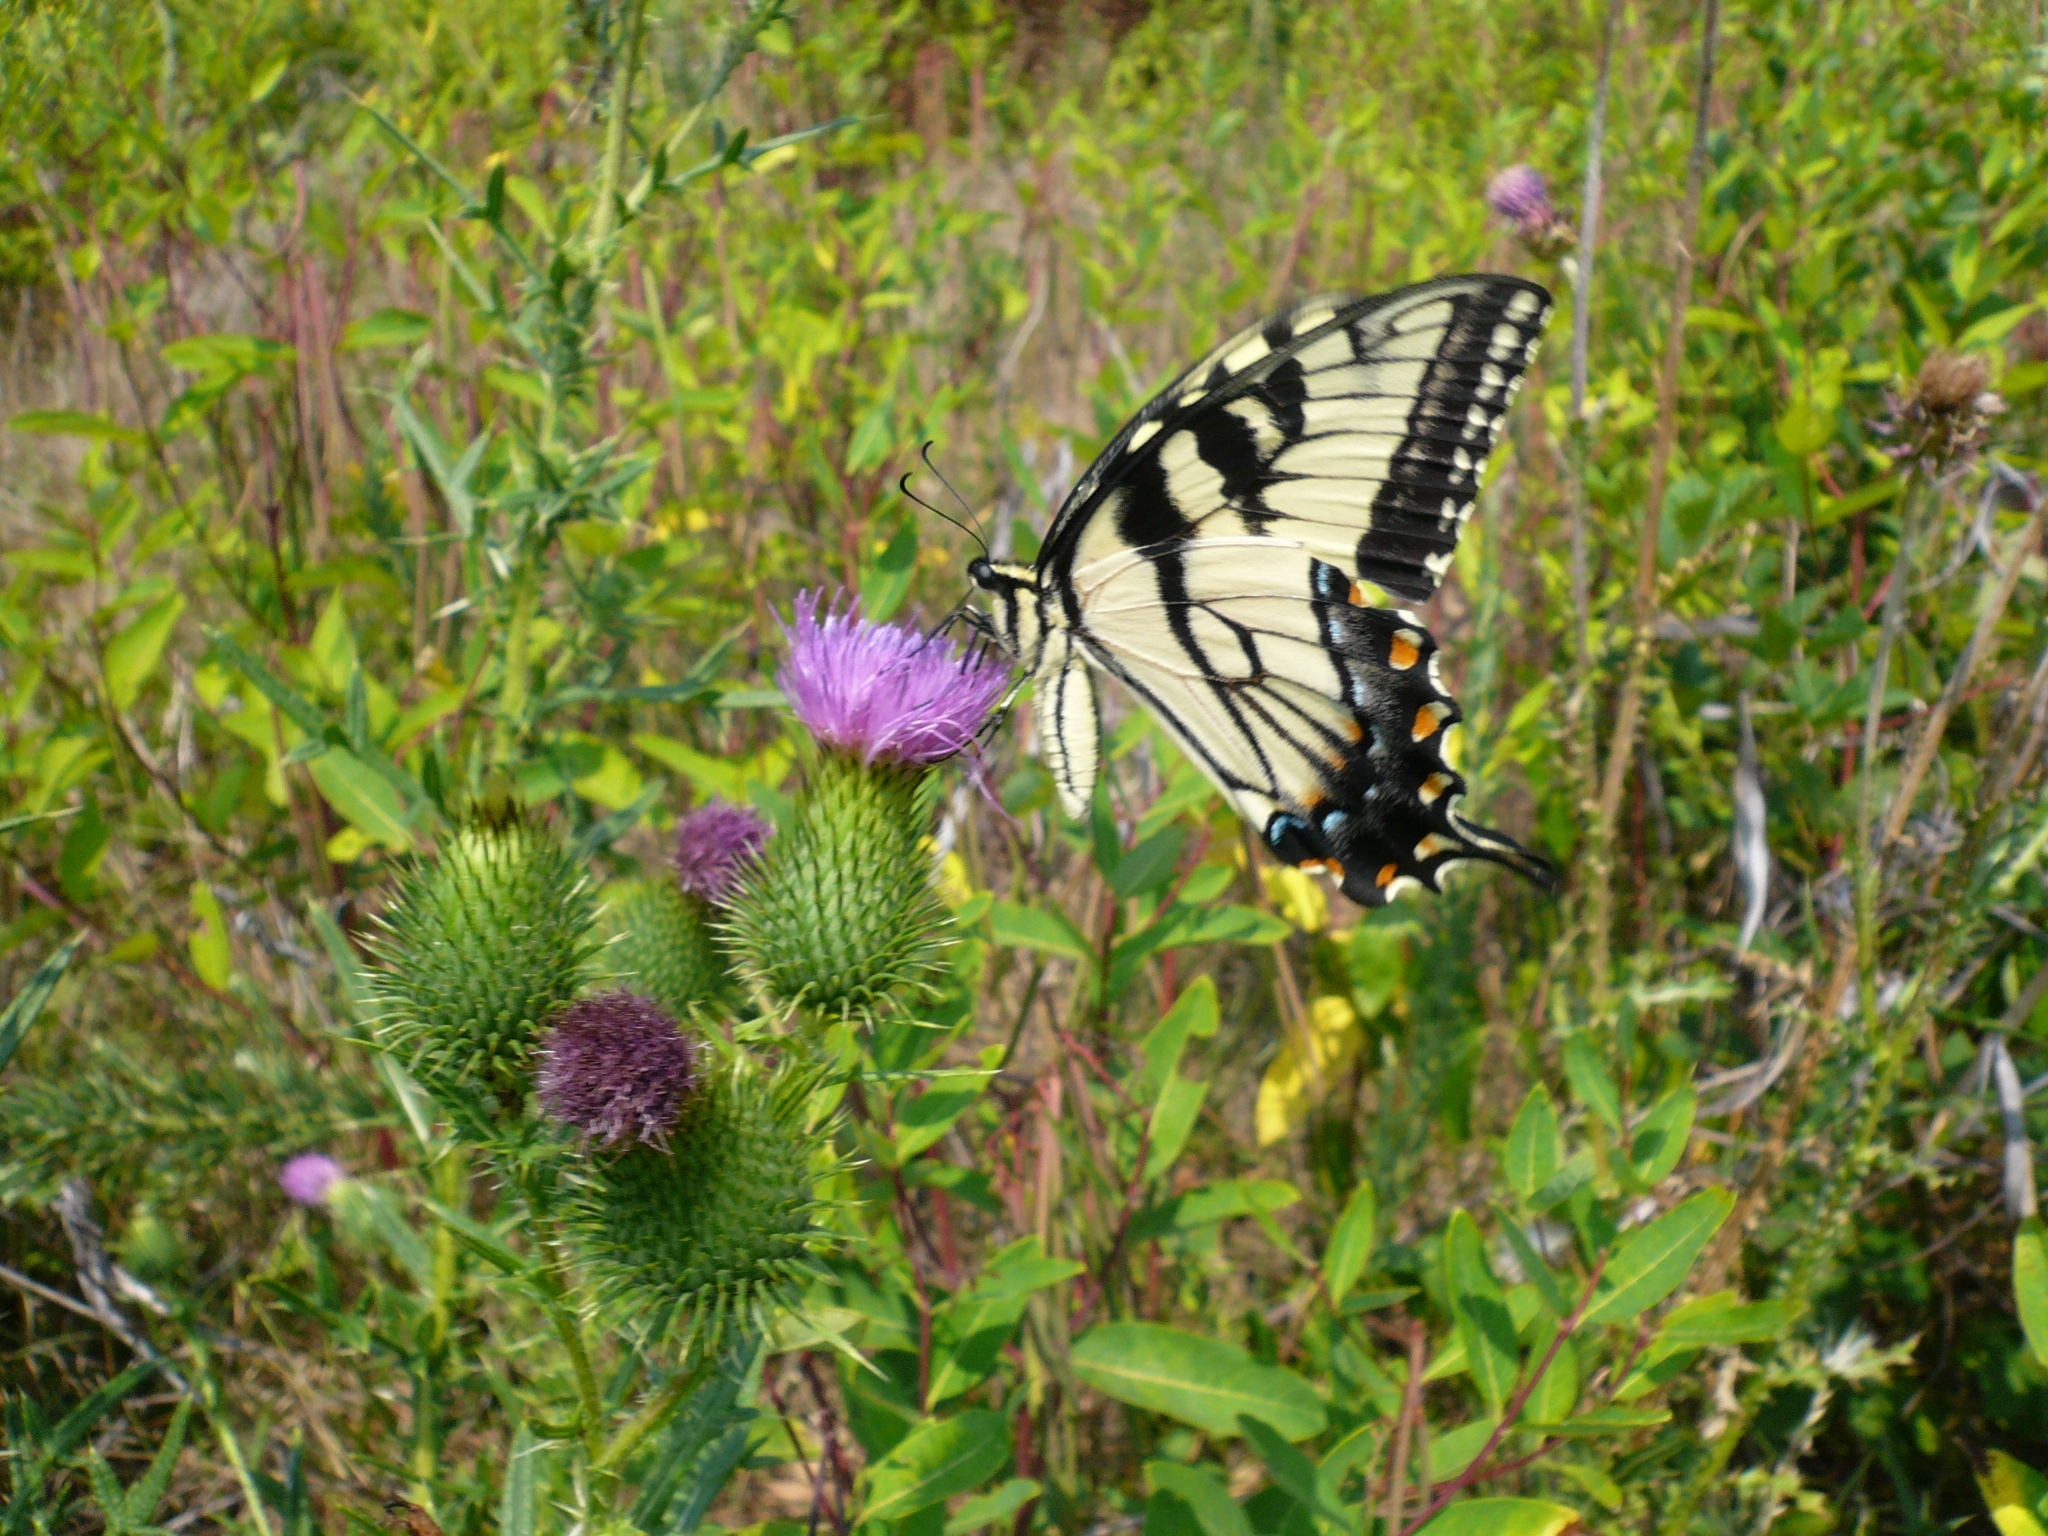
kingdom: Animalia
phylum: Arthropoda
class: Insecta
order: Lepidoptera
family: Papilionidae
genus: Papilio
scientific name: Papilio glaucus
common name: Tiger swallowtail
